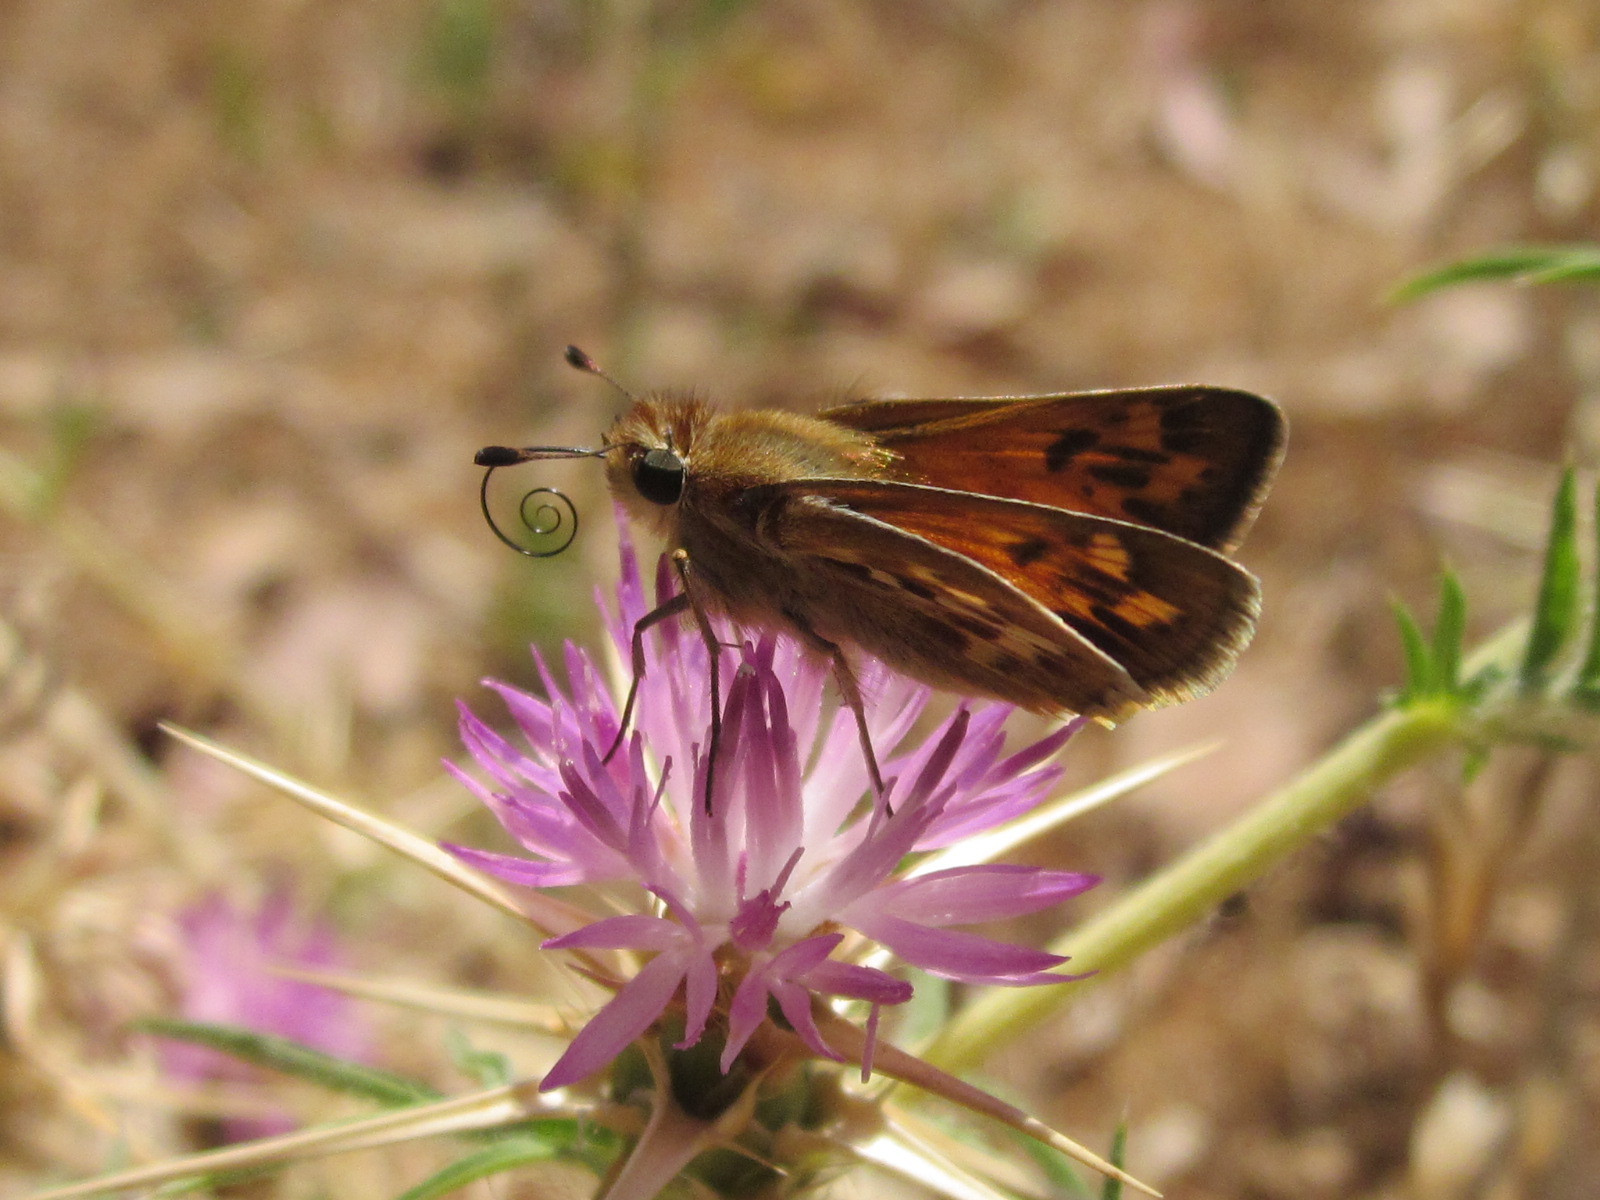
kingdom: Animalia
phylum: Arthropoda
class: Insecta
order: Lepidoptera
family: Hesperiidae
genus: Hylephila
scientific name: Hylephila signata
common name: Signata skipper
